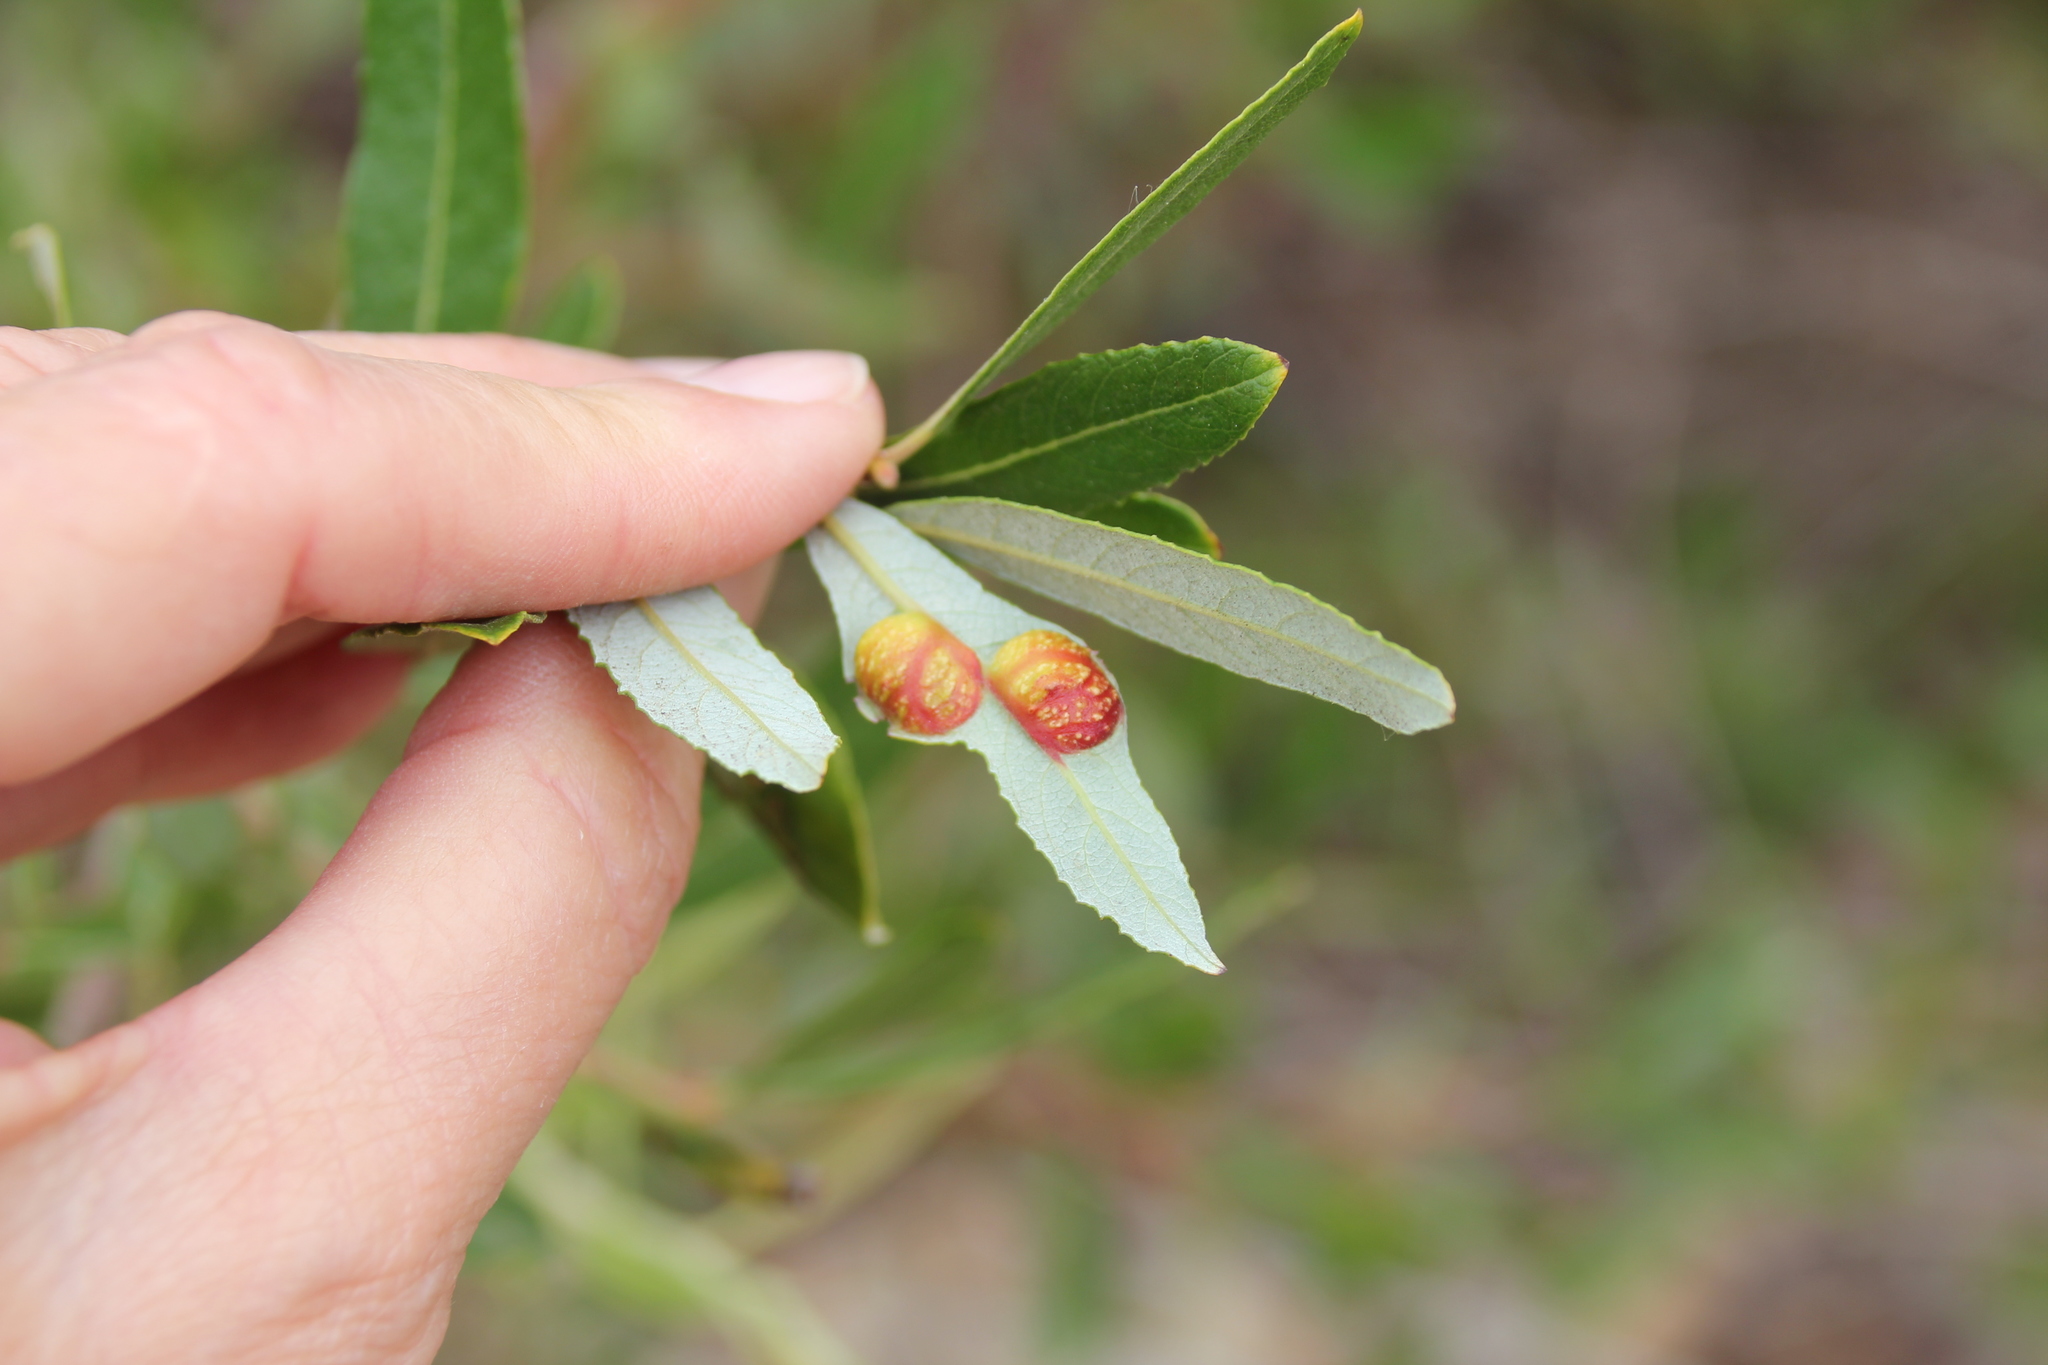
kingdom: Animalia
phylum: Arthropoda
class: Insecta
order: Hymenoptera
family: Tenthredinidae
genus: Euura
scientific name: Euura
